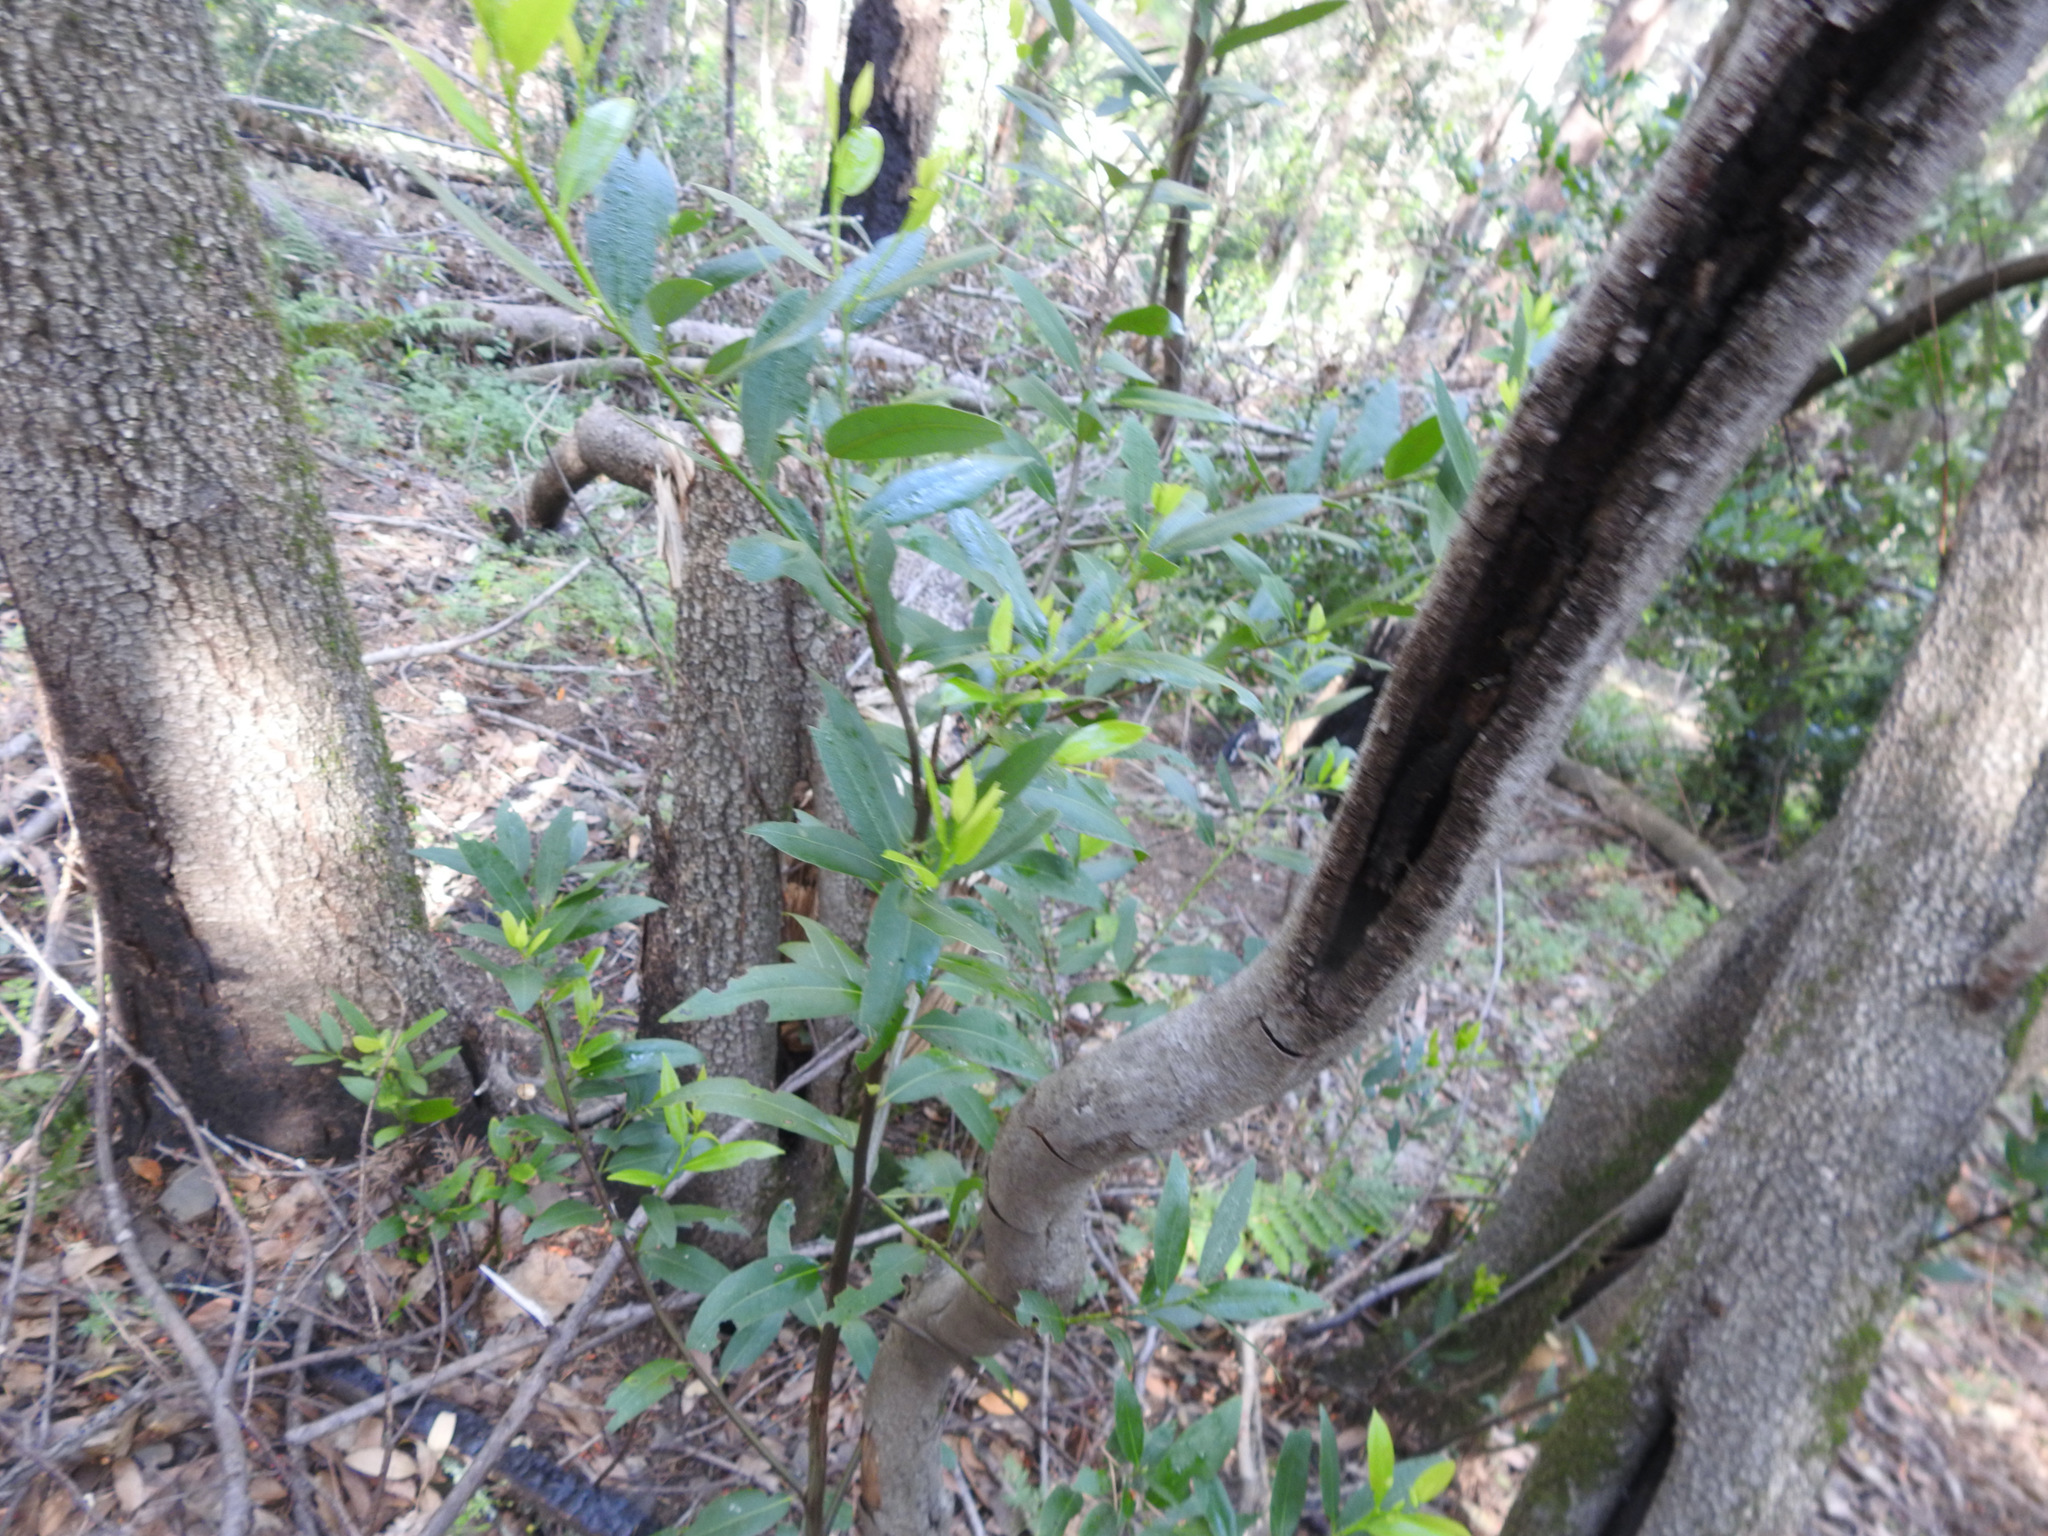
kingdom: Plantae
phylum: Tracheophyta
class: Magnoliopsida
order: Laurales
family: Lauraceae
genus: Umbellularia
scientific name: Umbellularia californica
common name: California bay
